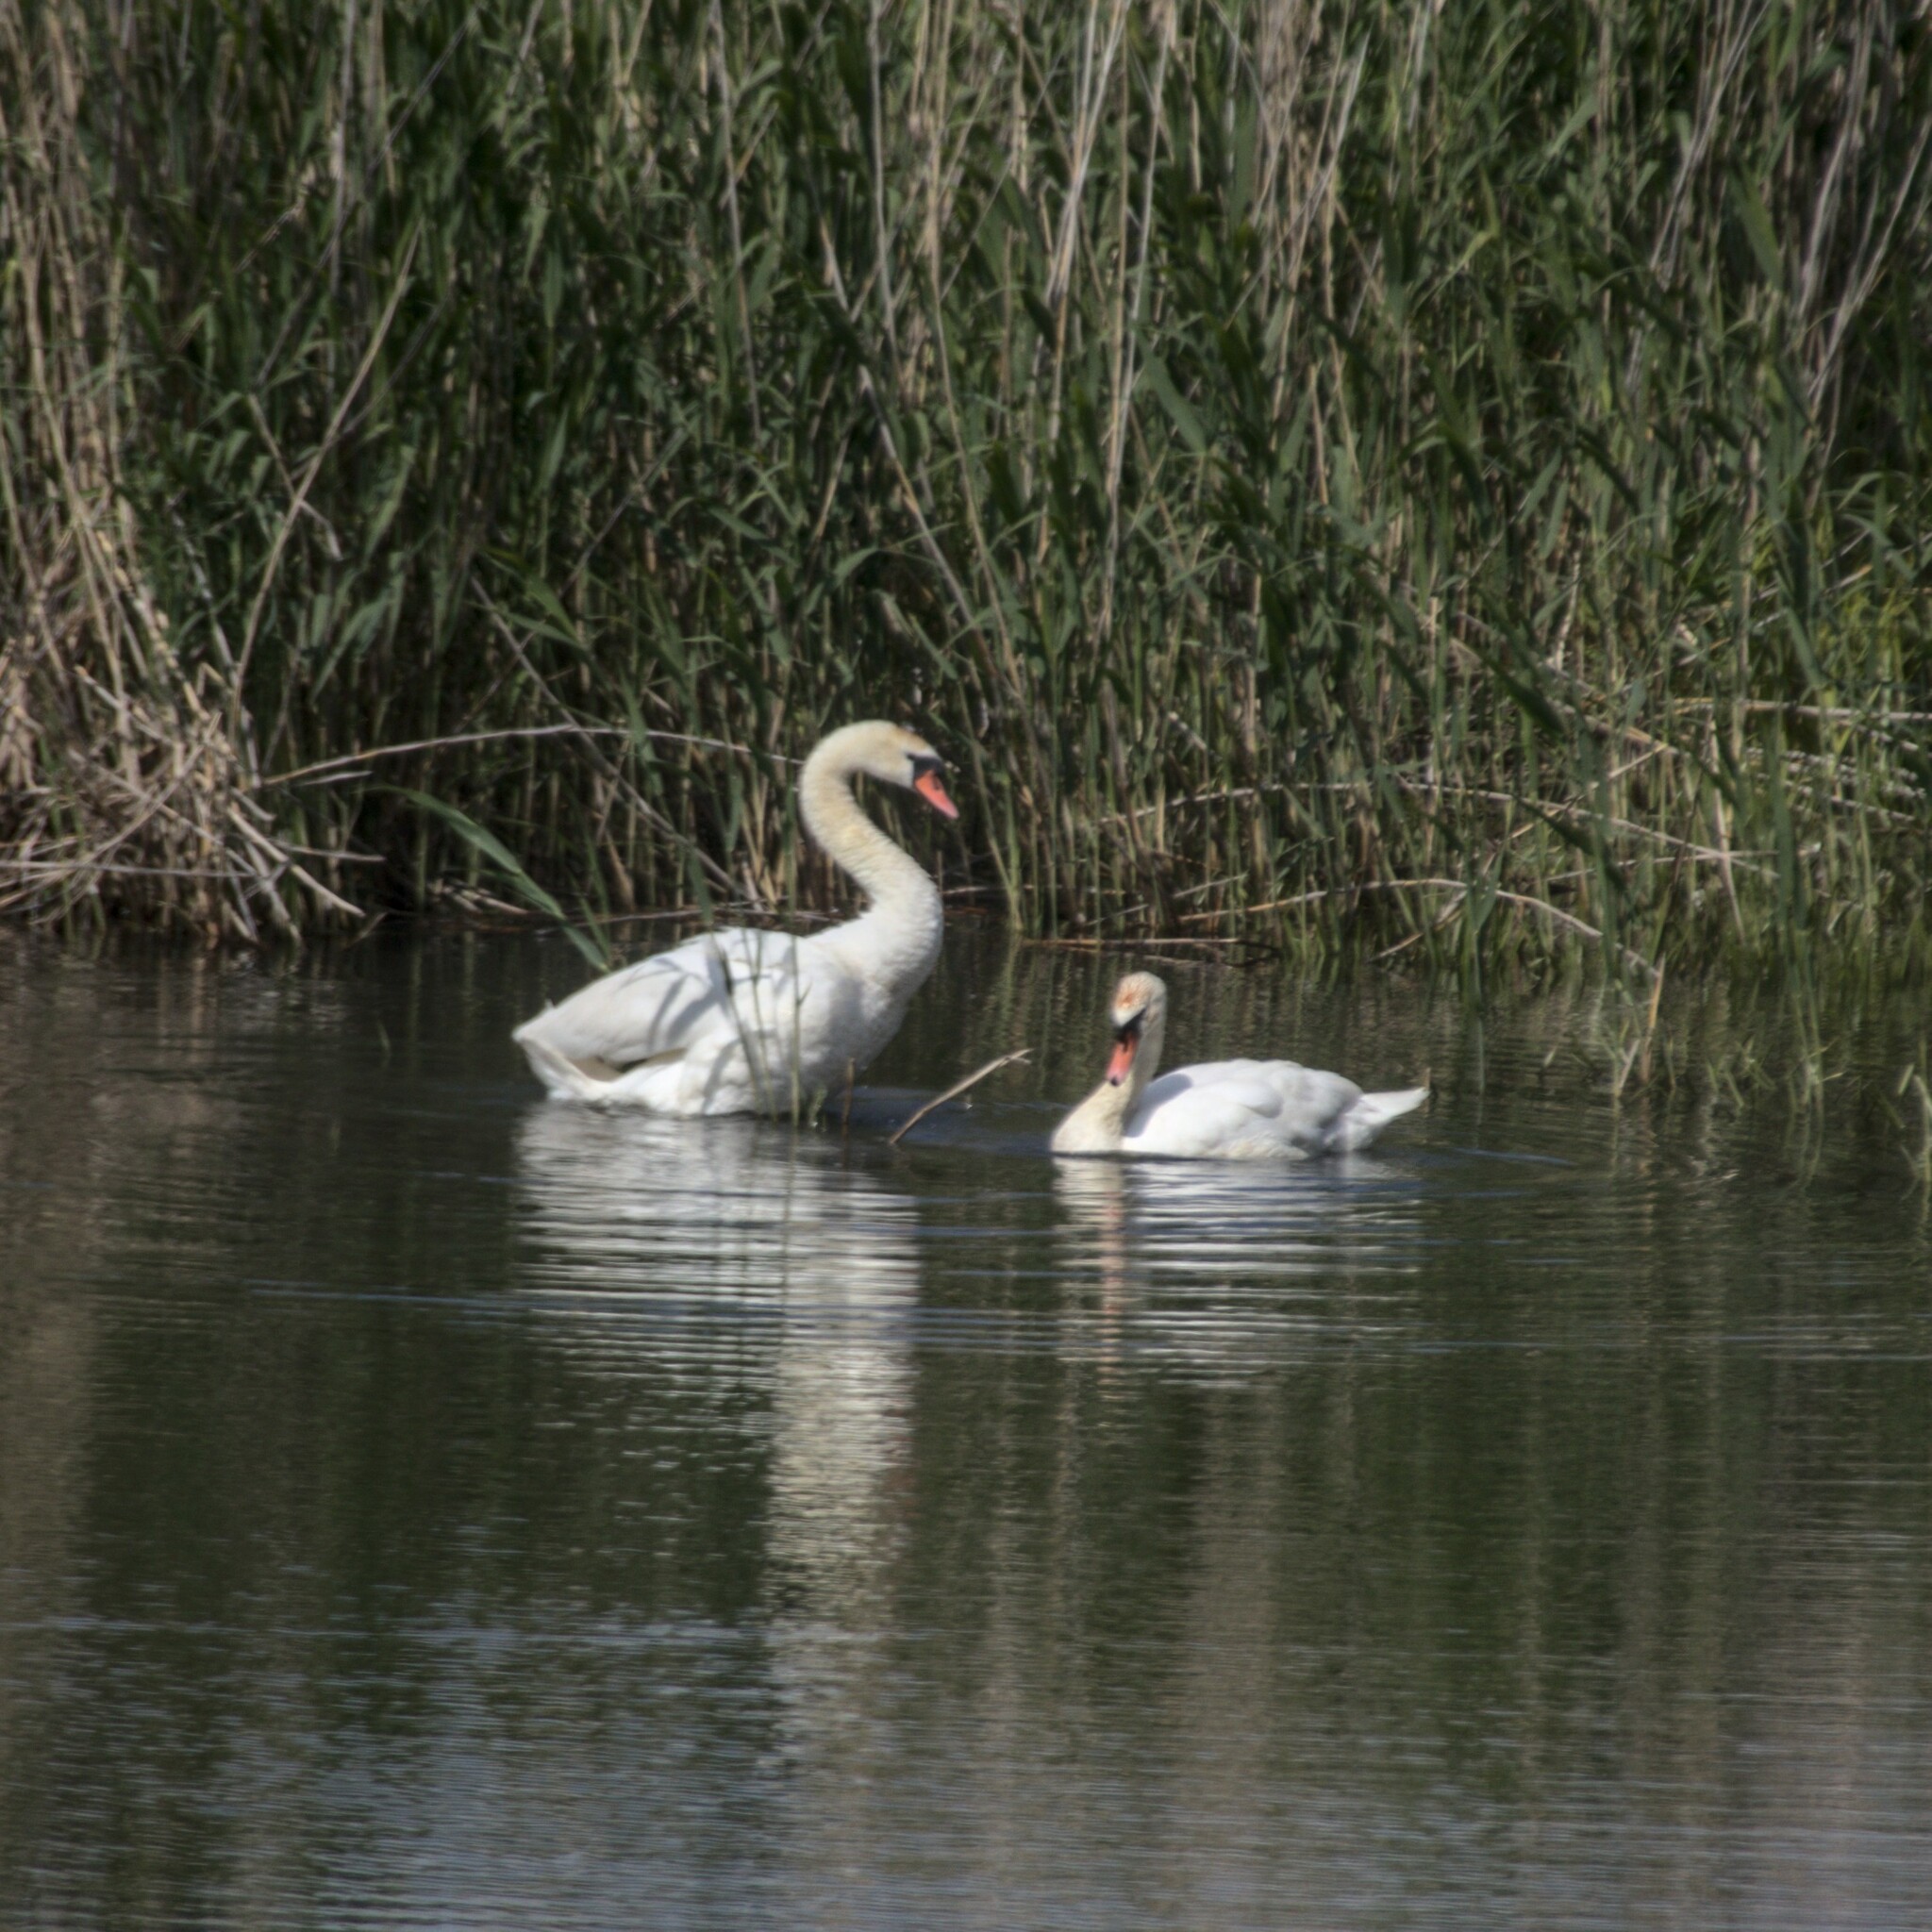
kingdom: Animalia
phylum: Chordata
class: Aves
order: Anseriformes
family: Anatidae
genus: Cygnus
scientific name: Cygnus olor
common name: Mute swan
